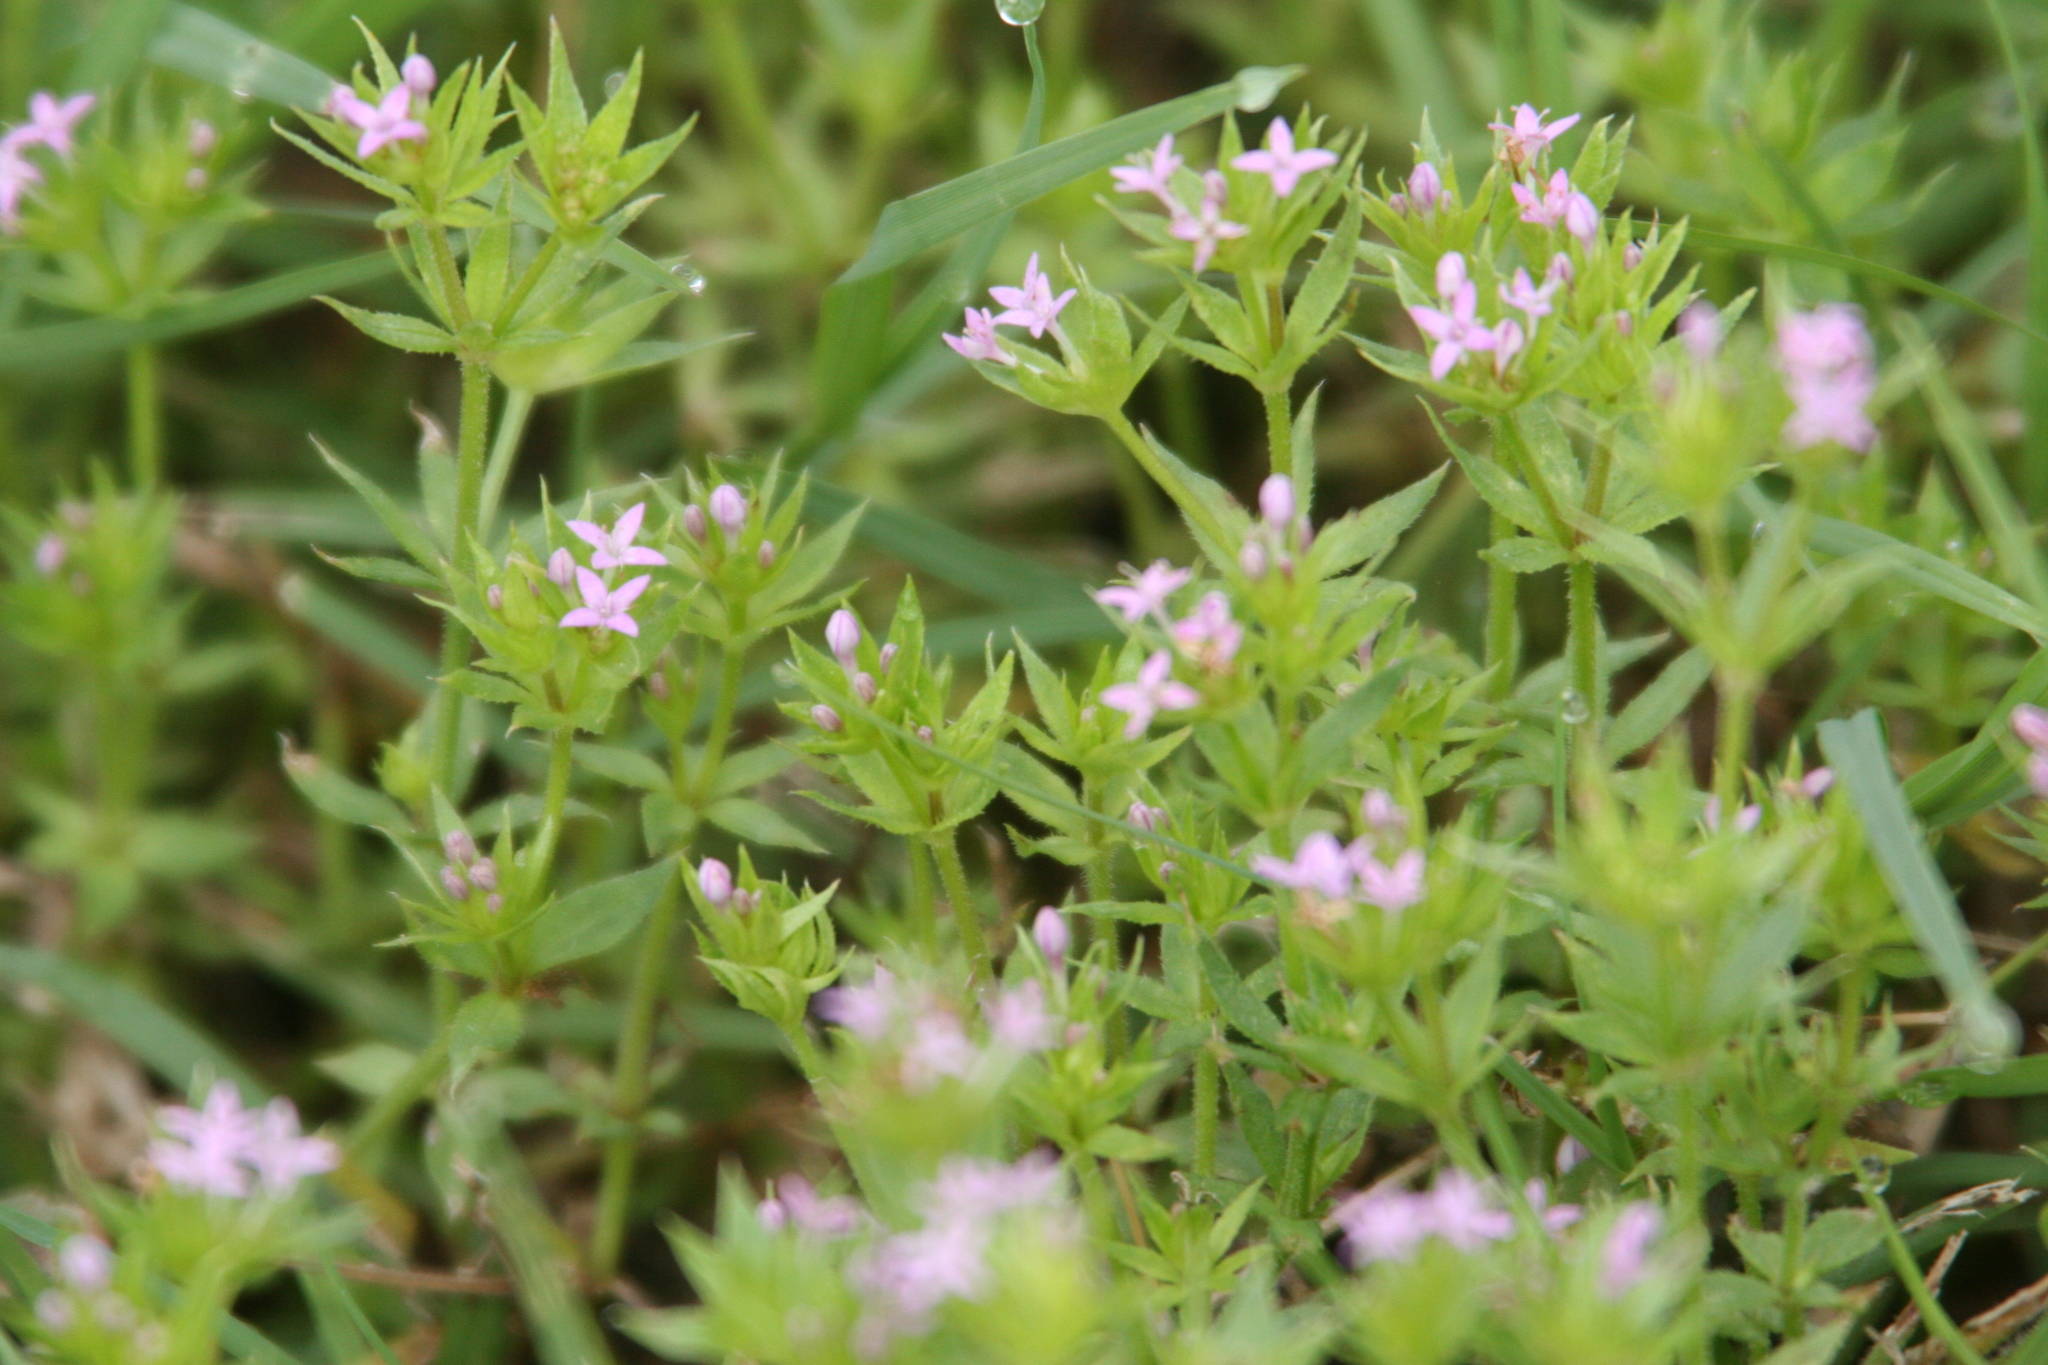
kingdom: Plantae
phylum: Tracheophyta
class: Magnoliopsida
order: Gentianales
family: Rubiaceae
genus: Sherardia
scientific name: Sherardia arvensis
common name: Field madder
